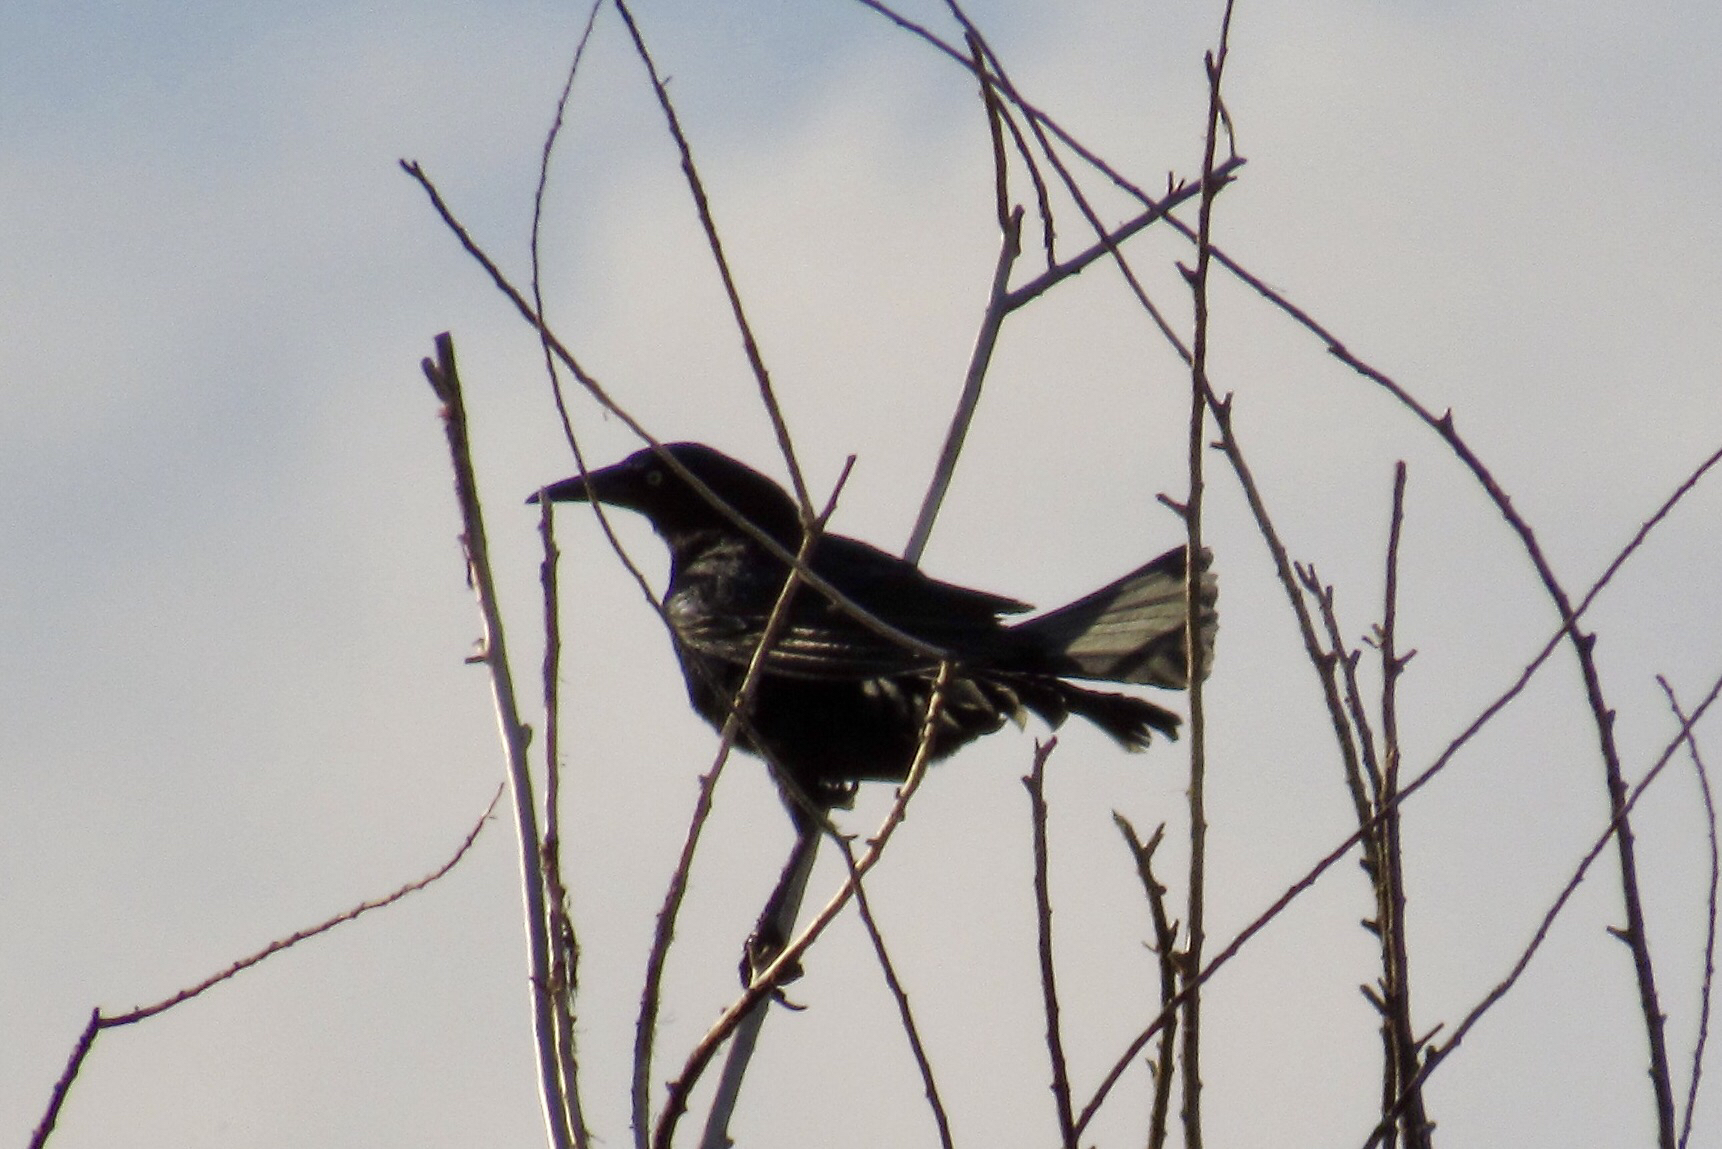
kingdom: Animalia
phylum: Chordata
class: Aves
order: Passeriformes
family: Icteridae
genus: Quiscalus
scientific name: Quiscalus mexicanus
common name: Great-tailed grackle
